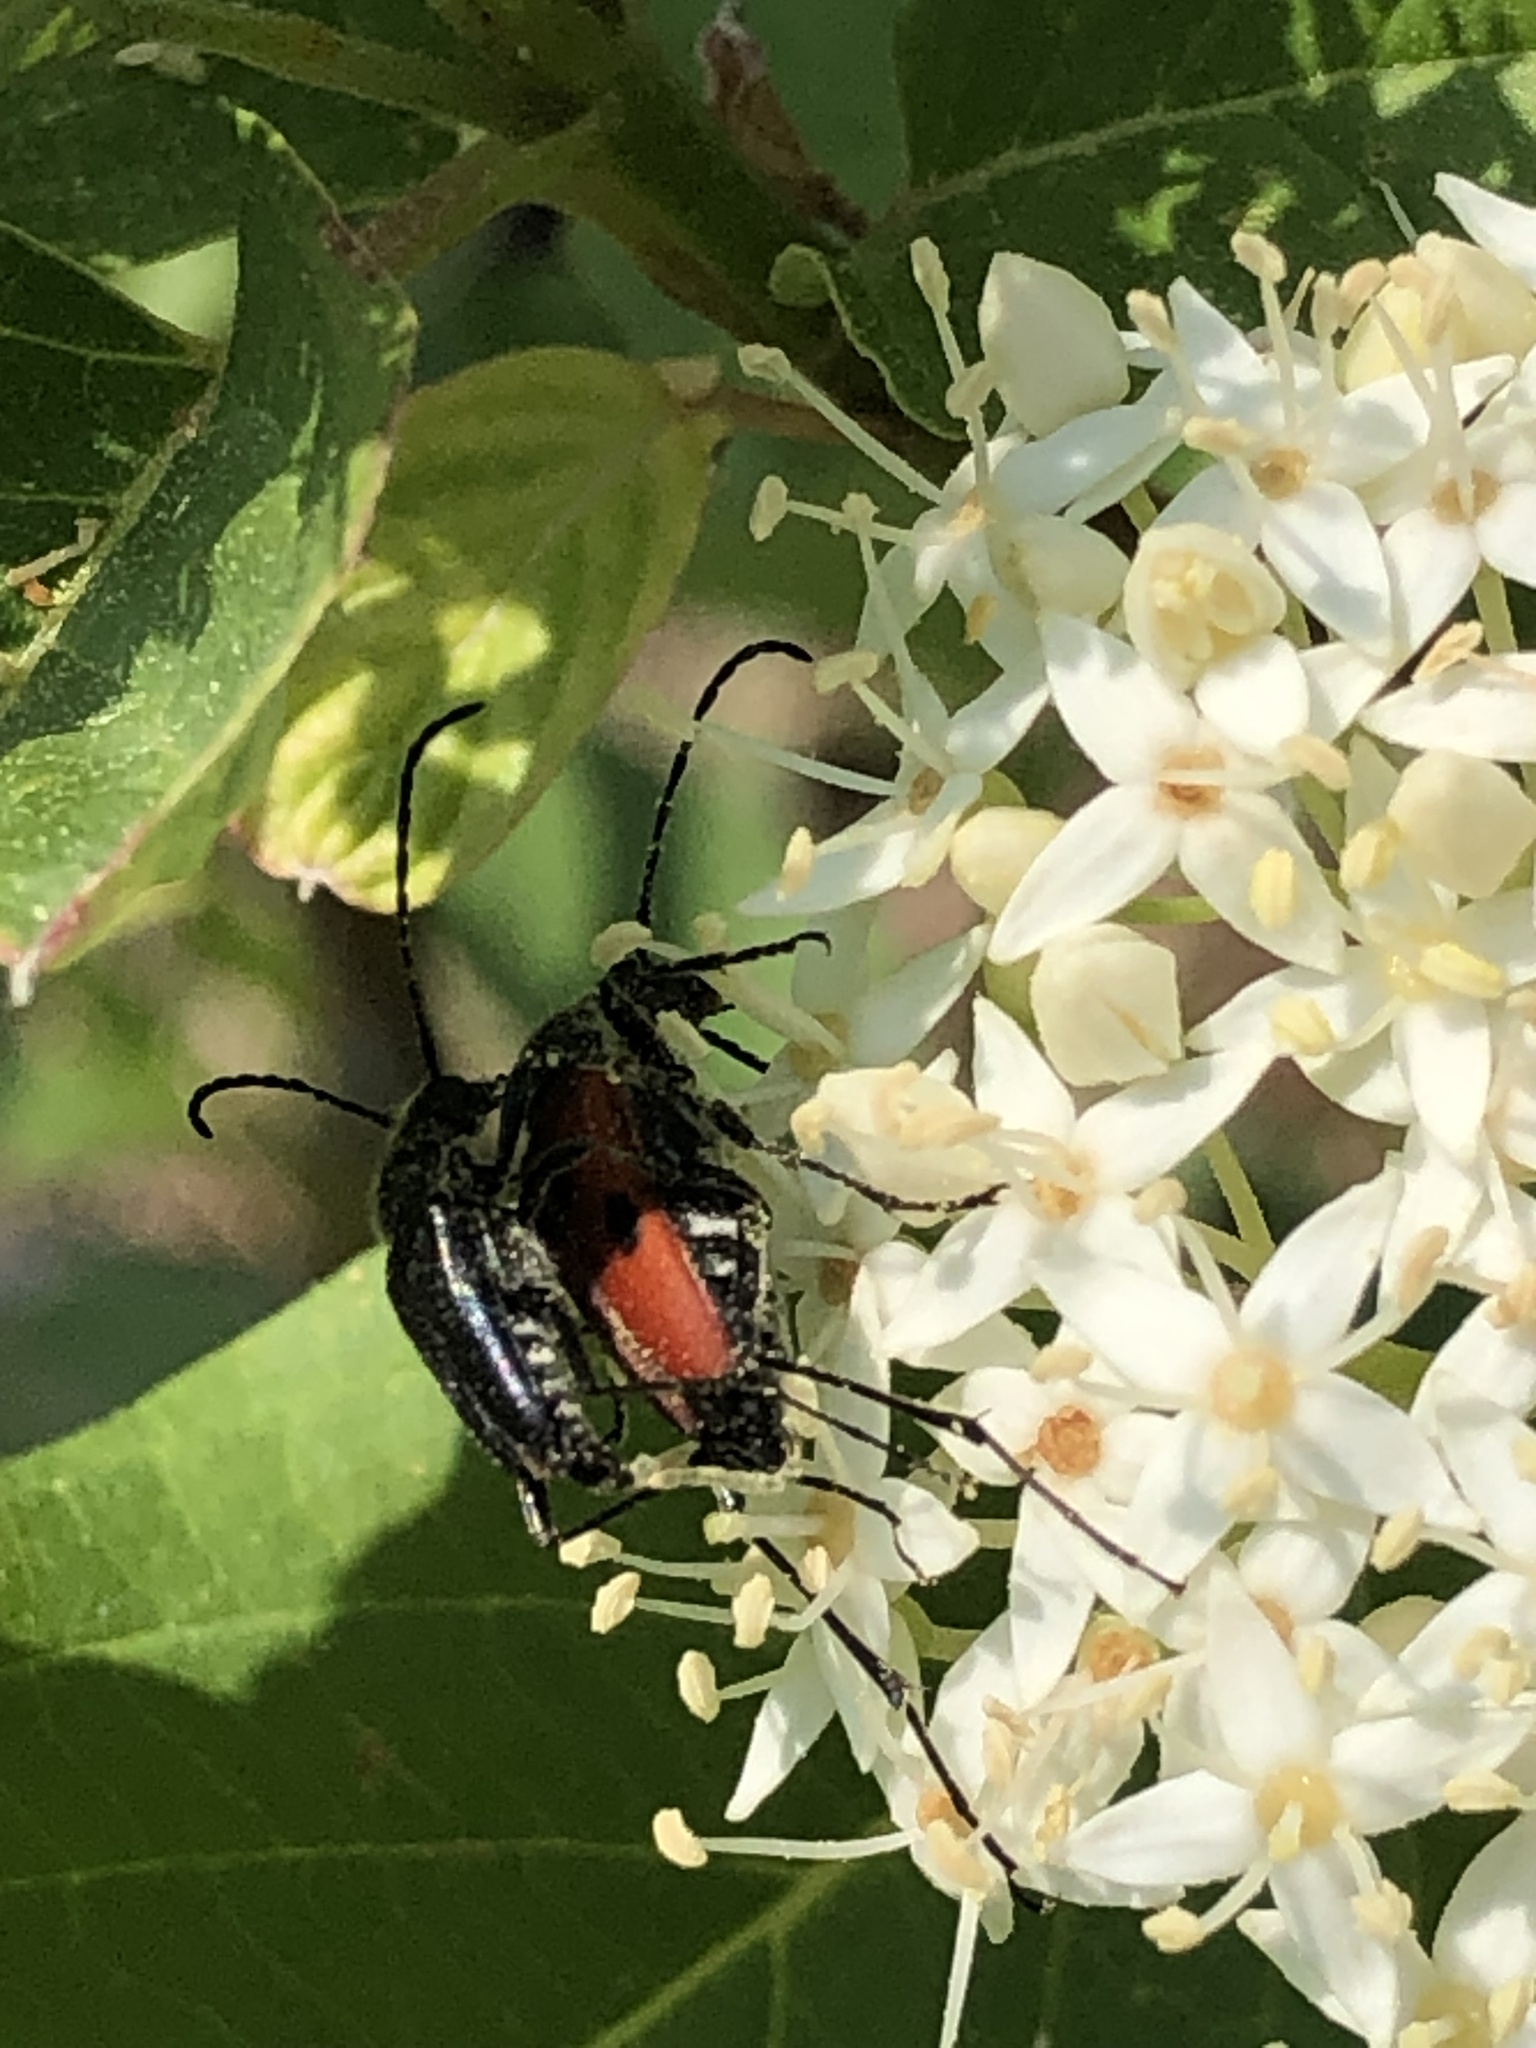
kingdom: Animalia
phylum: Arthropoda
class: Insecta
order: Coleoptera
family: Cerambycidae
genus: Anastrangalia
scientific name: Anastrangalia laetifica
